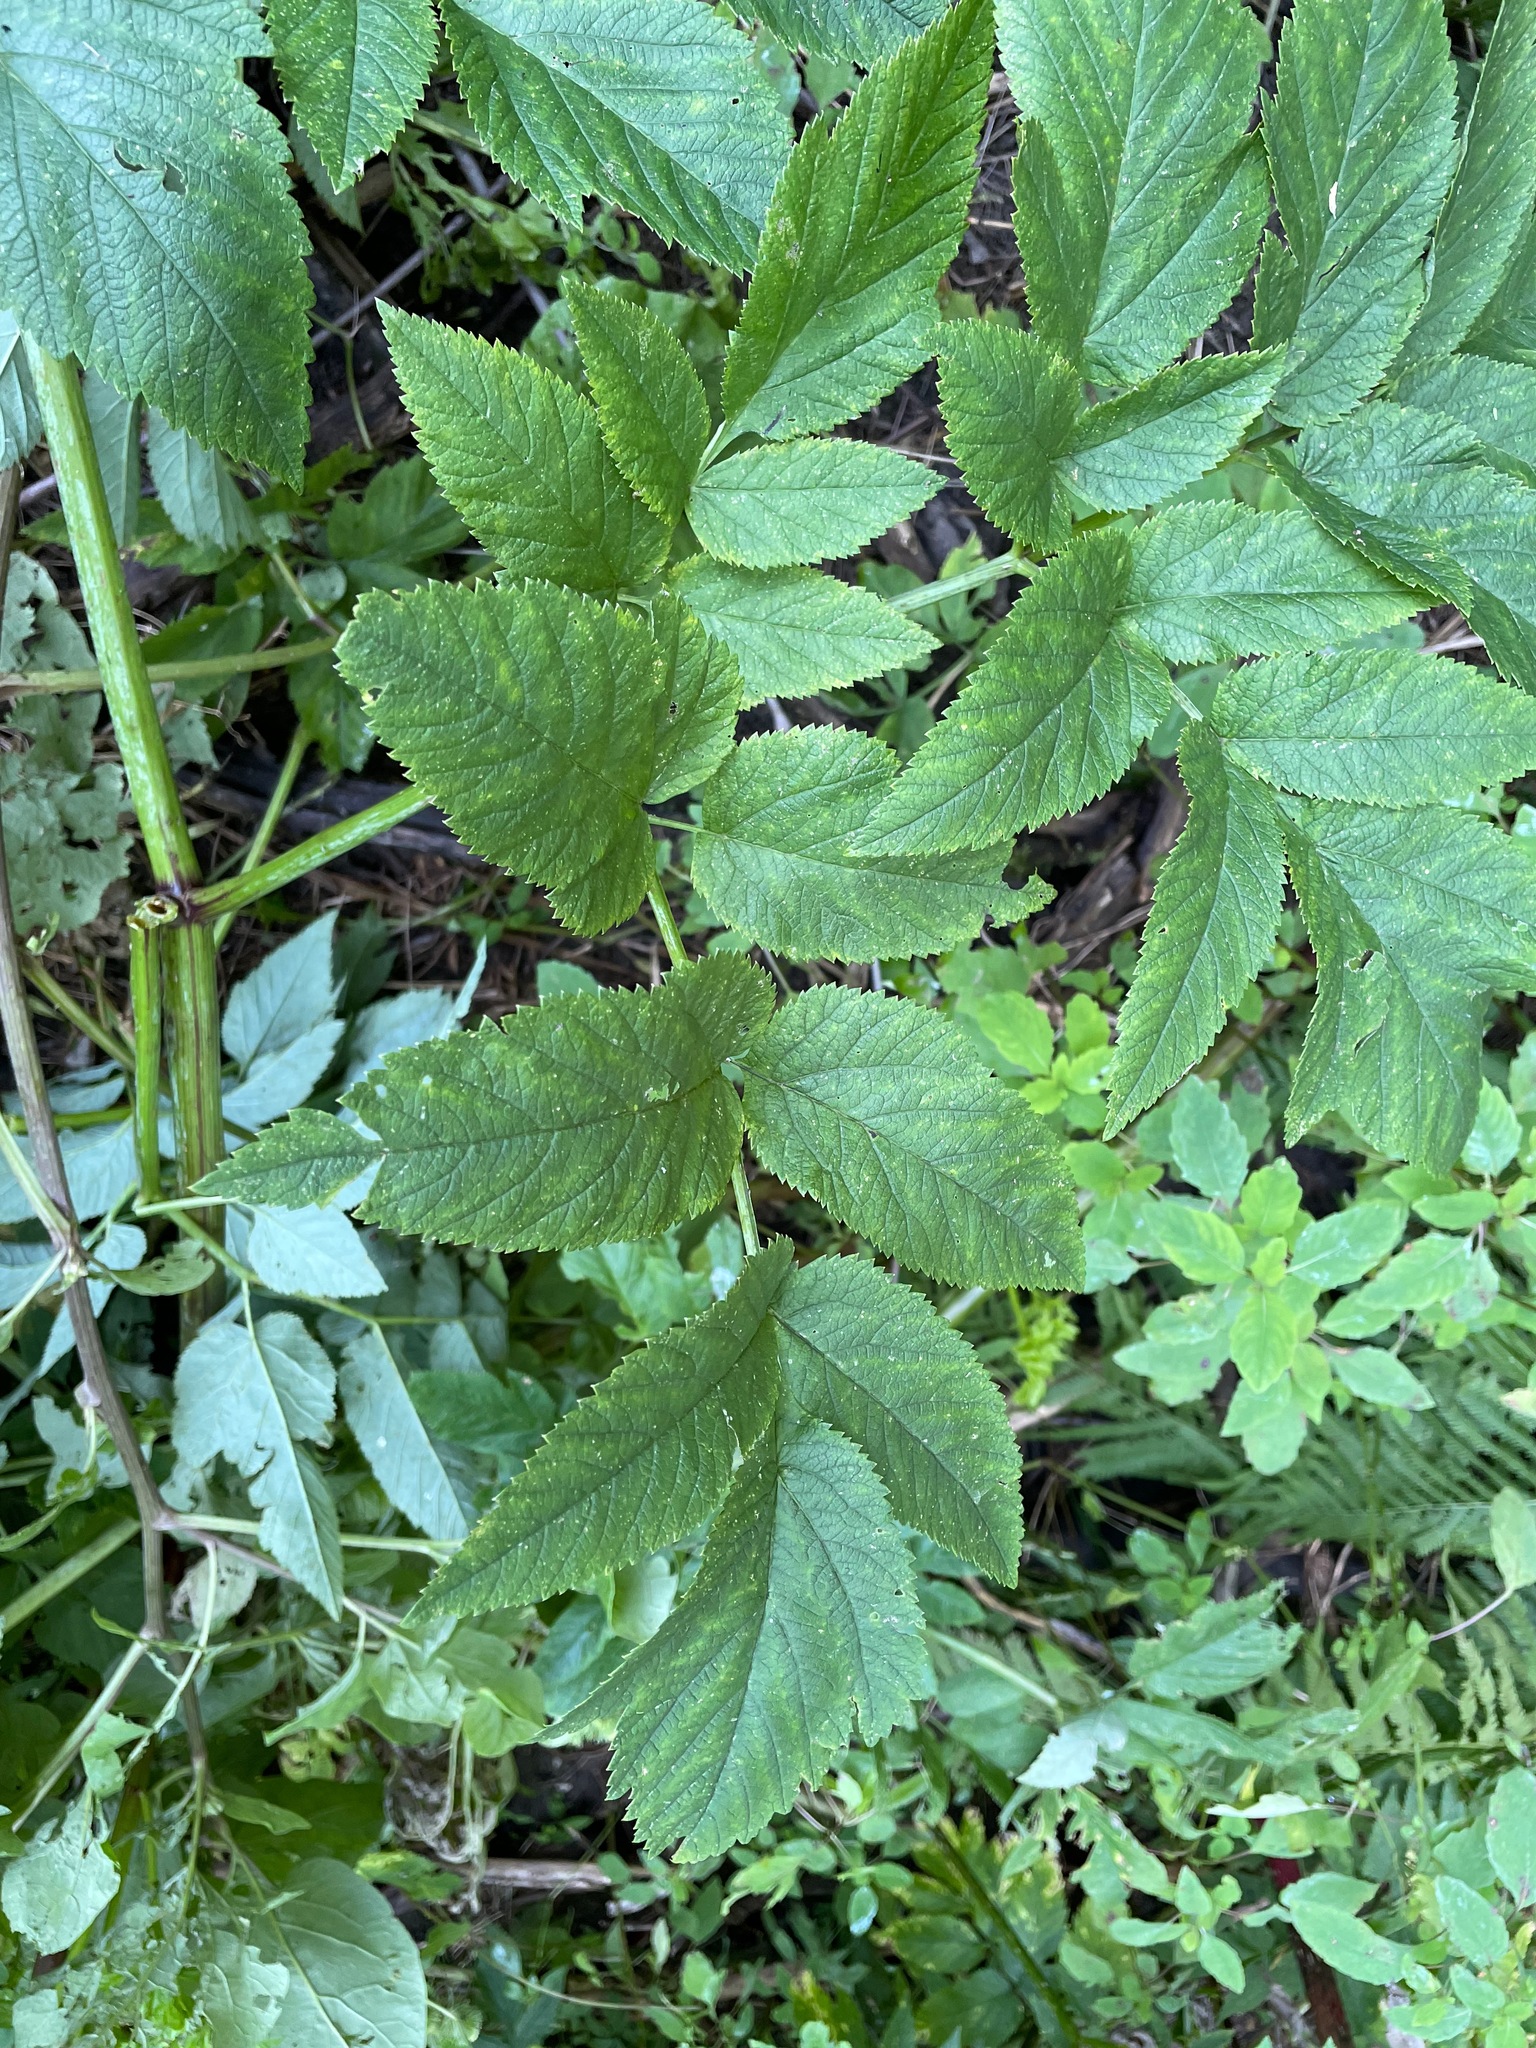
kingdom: Plantae
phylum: Tracheophyta
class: Magnoliopsida
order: Apiales
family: Apiaceae
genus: Angelica
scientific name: Angelica atropurpurea
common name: Great angelica
